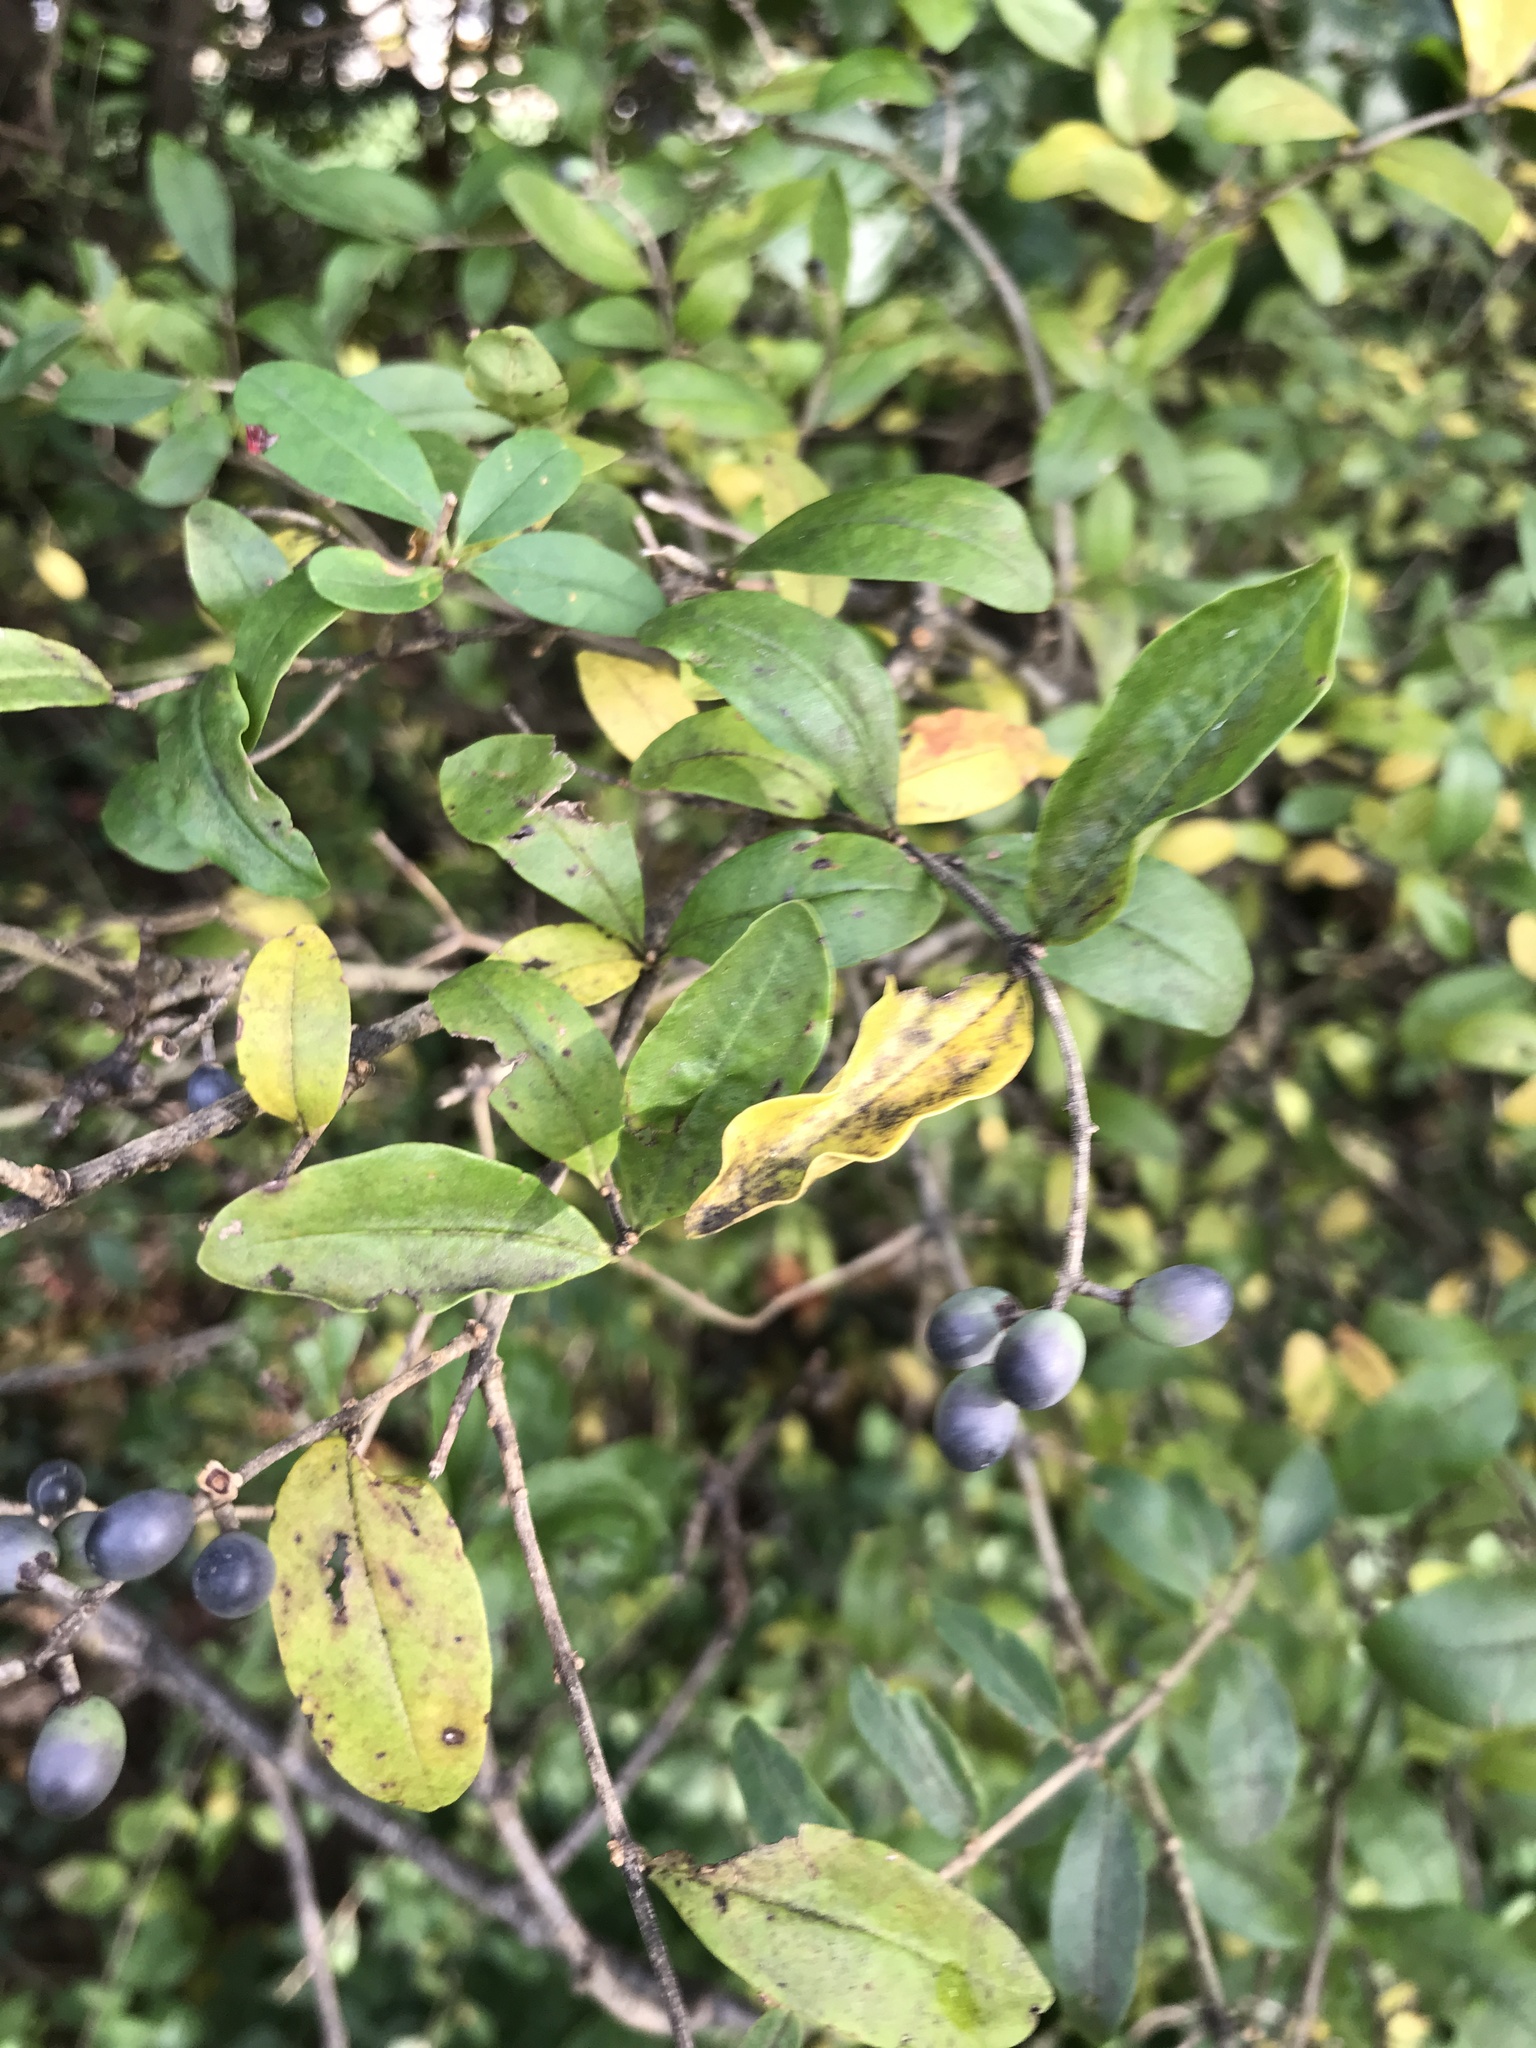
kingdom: Plantae
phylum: Tracheophyta
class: Magnoliopsida
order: Lamiales
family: Oleaceae
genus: Ligustrum
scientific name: Ligustrum obtusifolium
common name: Border privet
